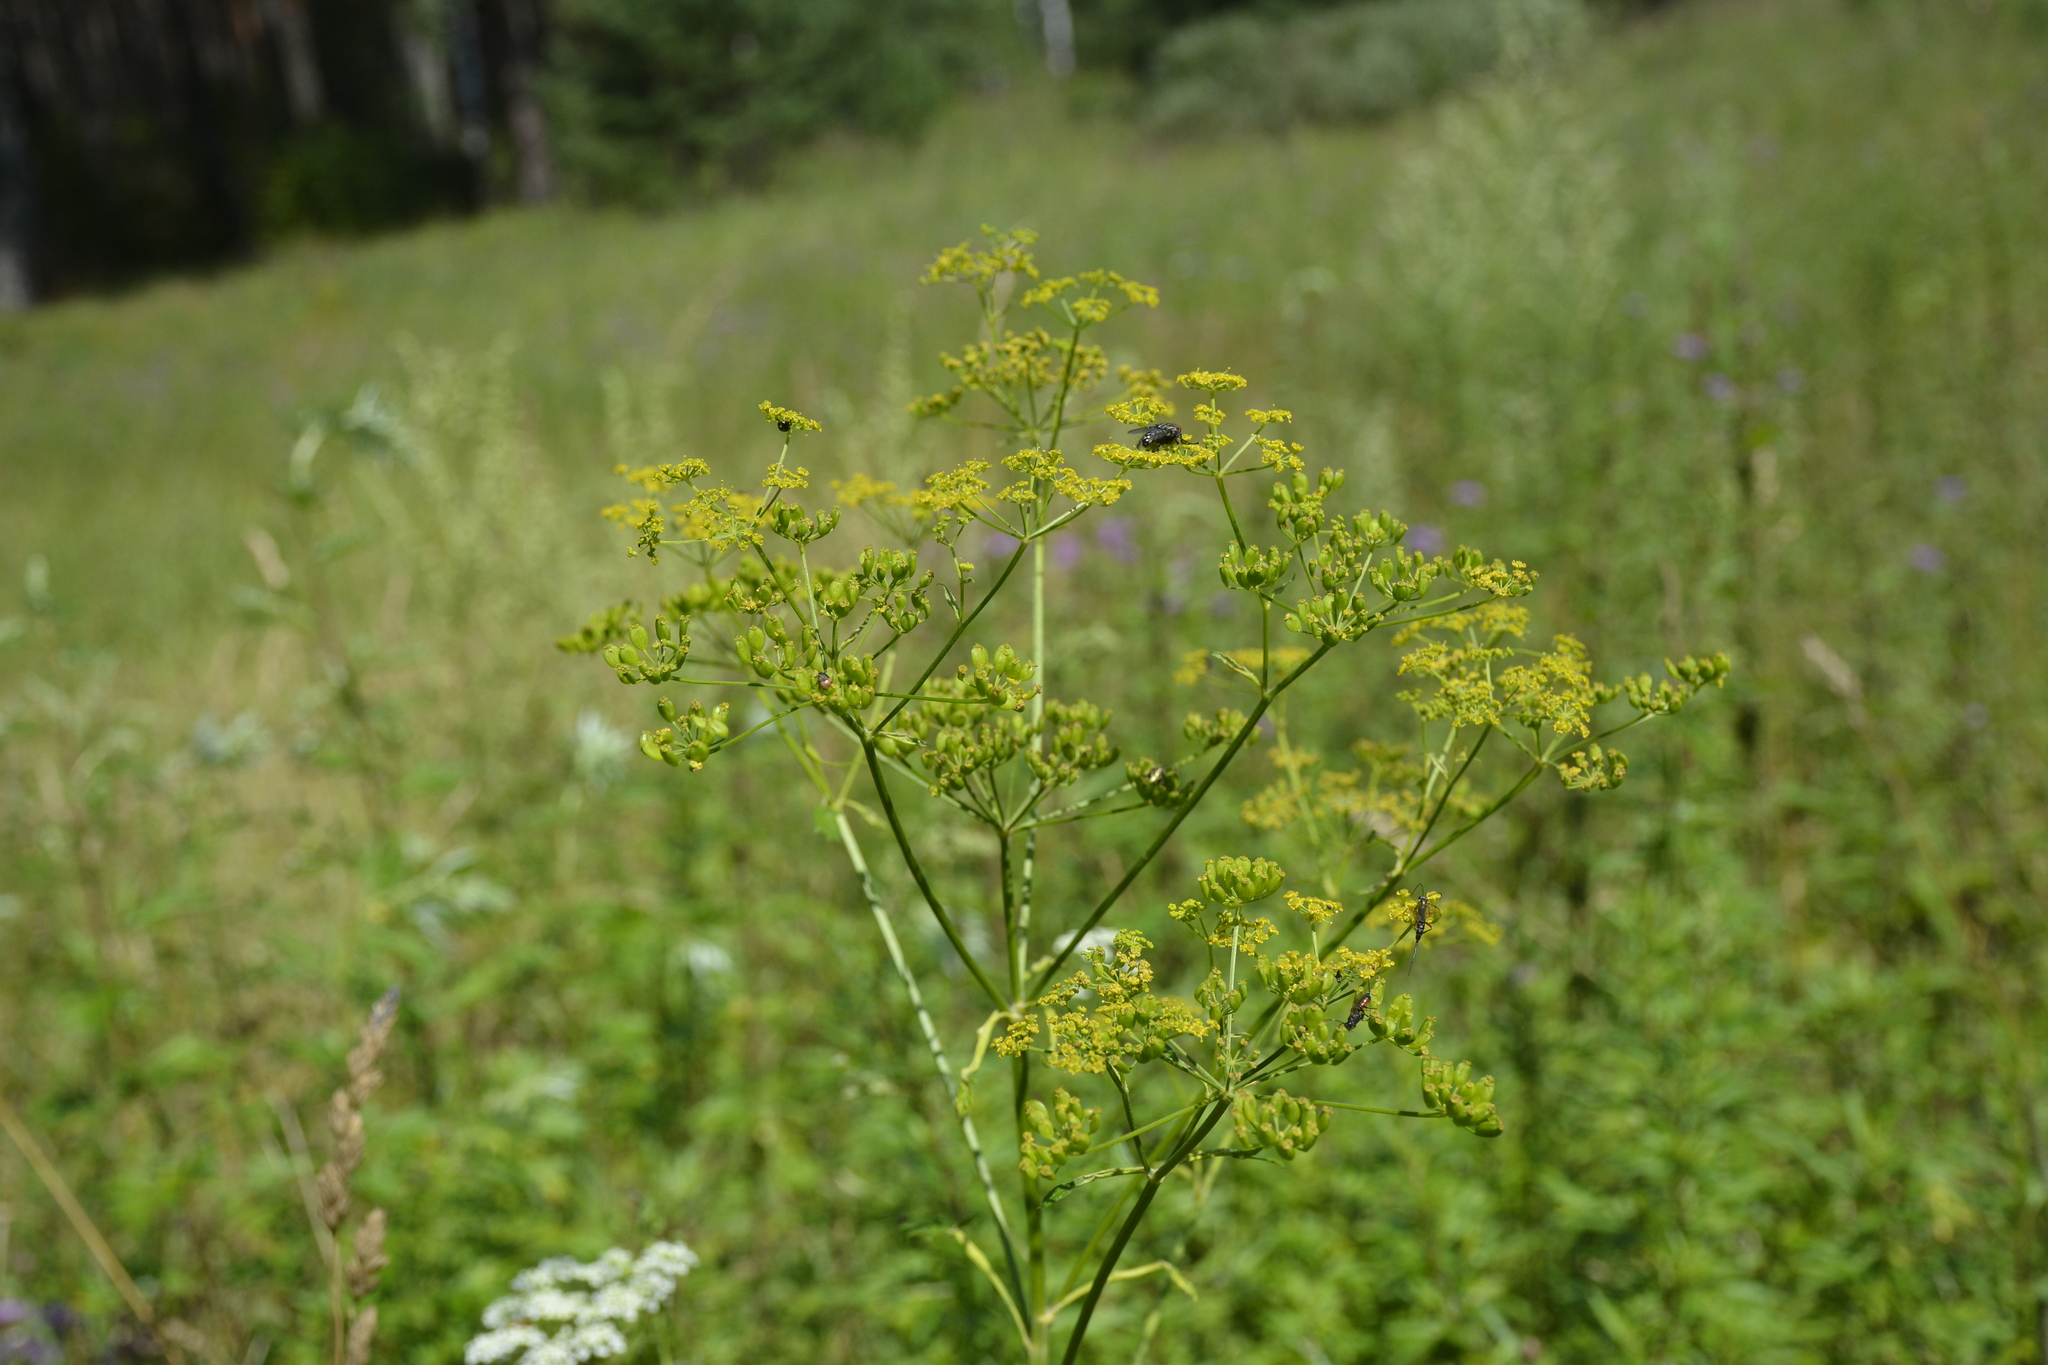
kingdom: Plantae
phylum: Tracheophyta
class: Magnoliopsida
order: Apiales
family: Apiaceae
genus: Pastinaca
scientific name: Pastinaca sativa
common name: Wild parsnip
